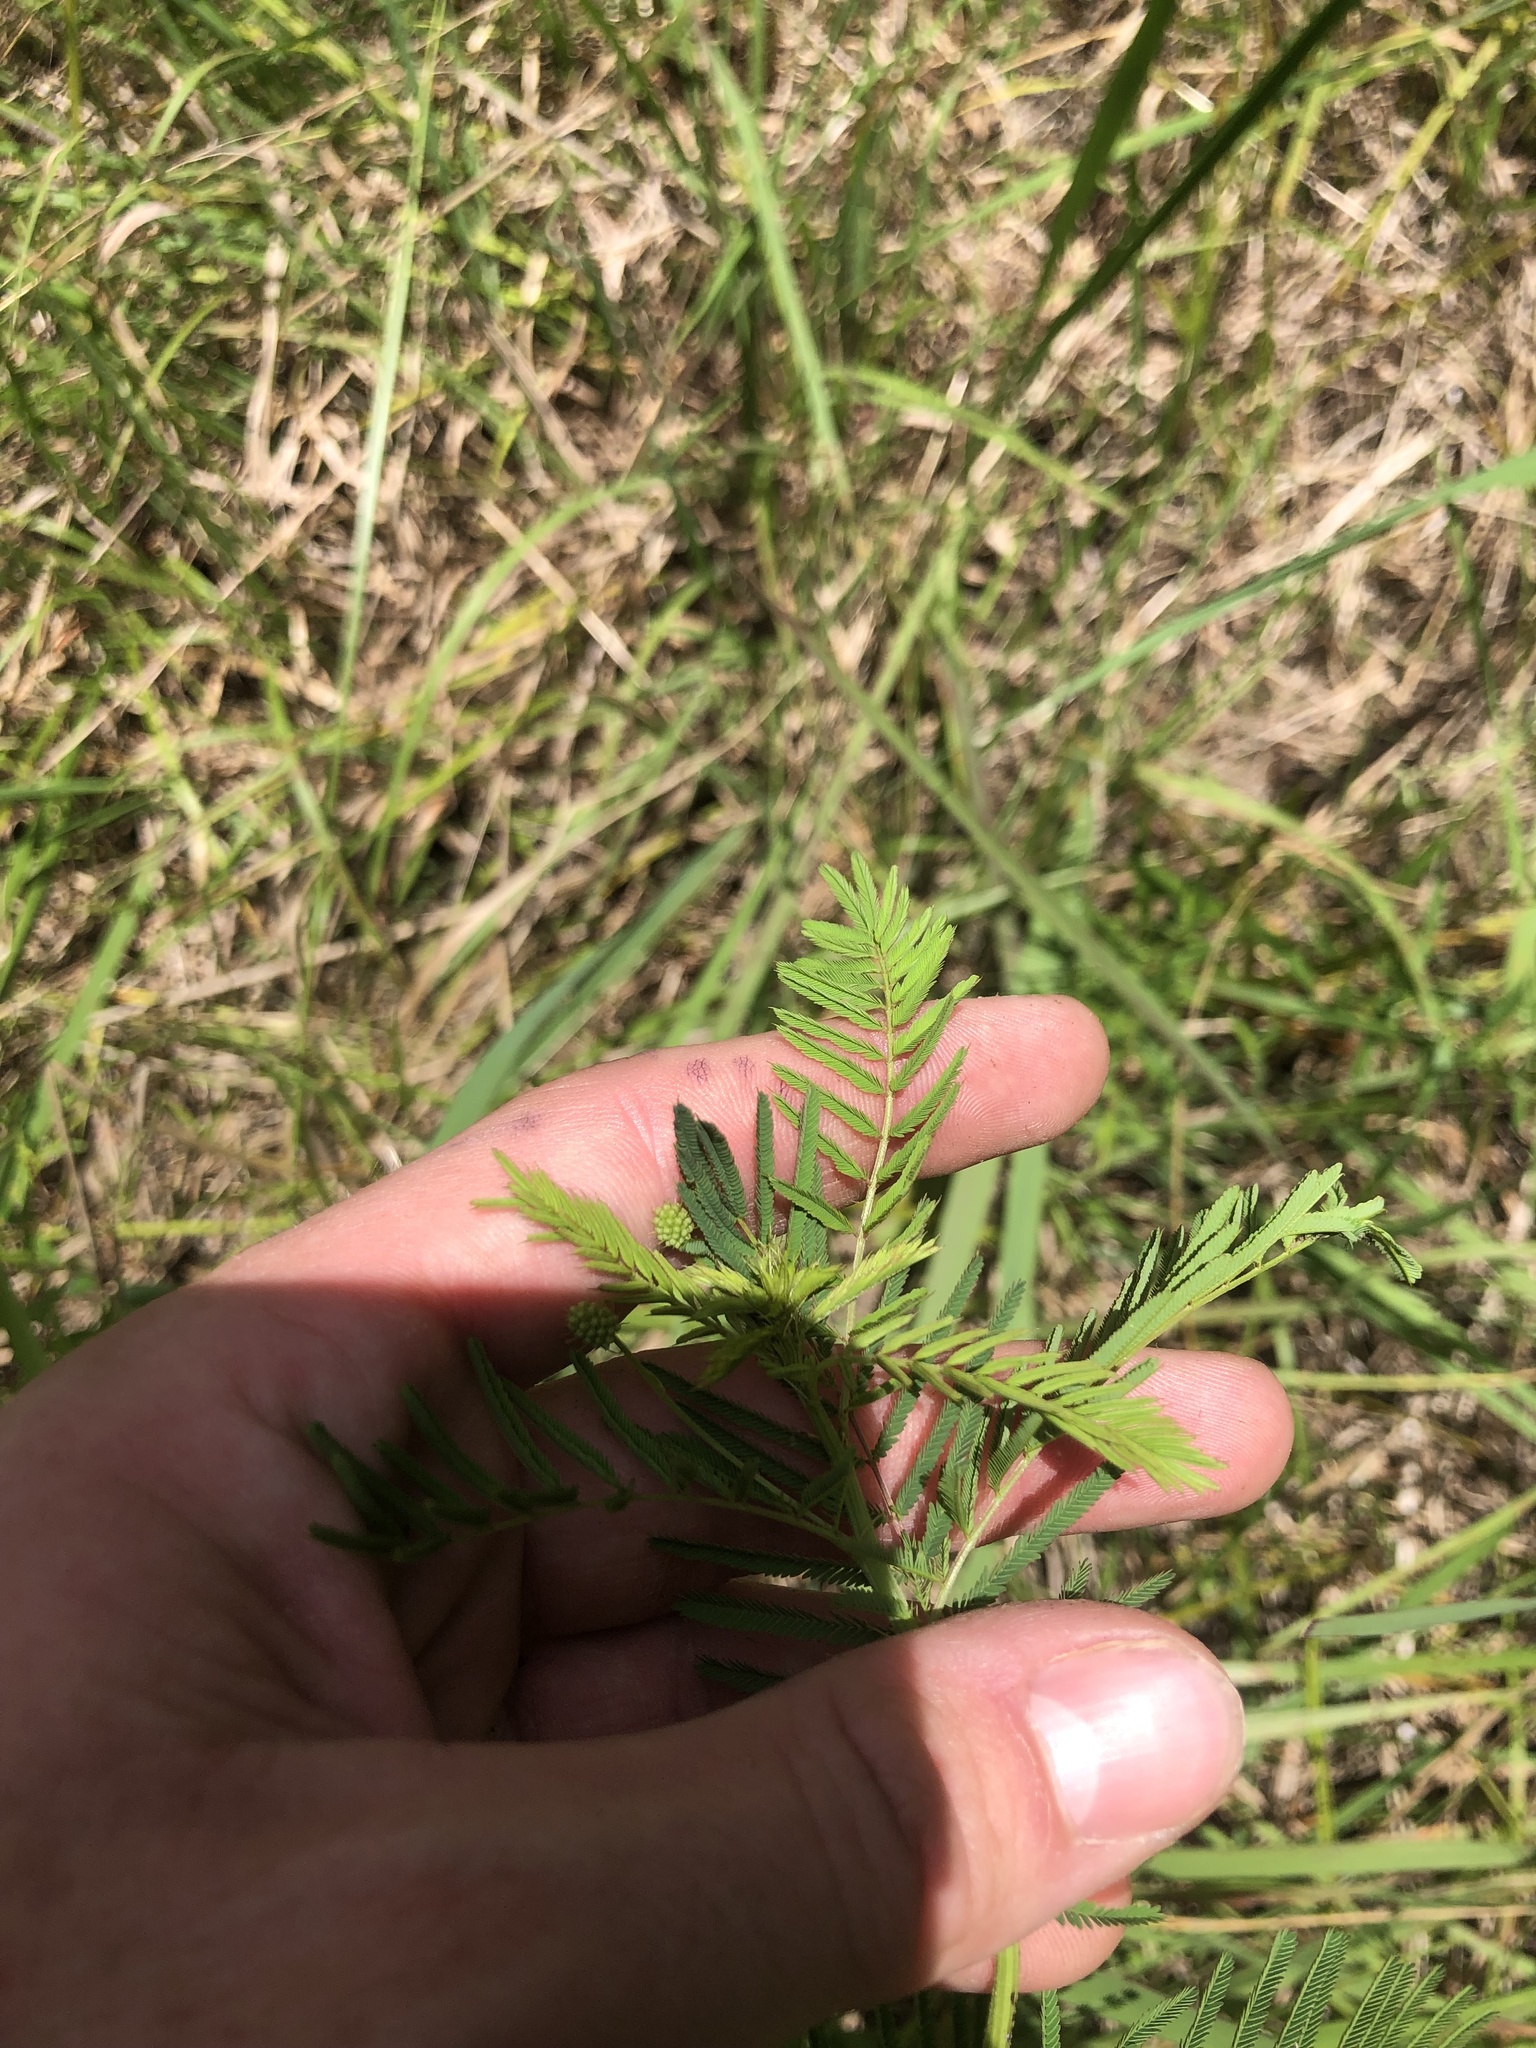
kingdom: Plantae
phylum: Tracheophyta
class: Magnoliopsida
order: Fabales
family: Fabaceae
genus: Desmanthus
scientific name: Desmanthus illinoensis
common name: Illinois bundle-flower
